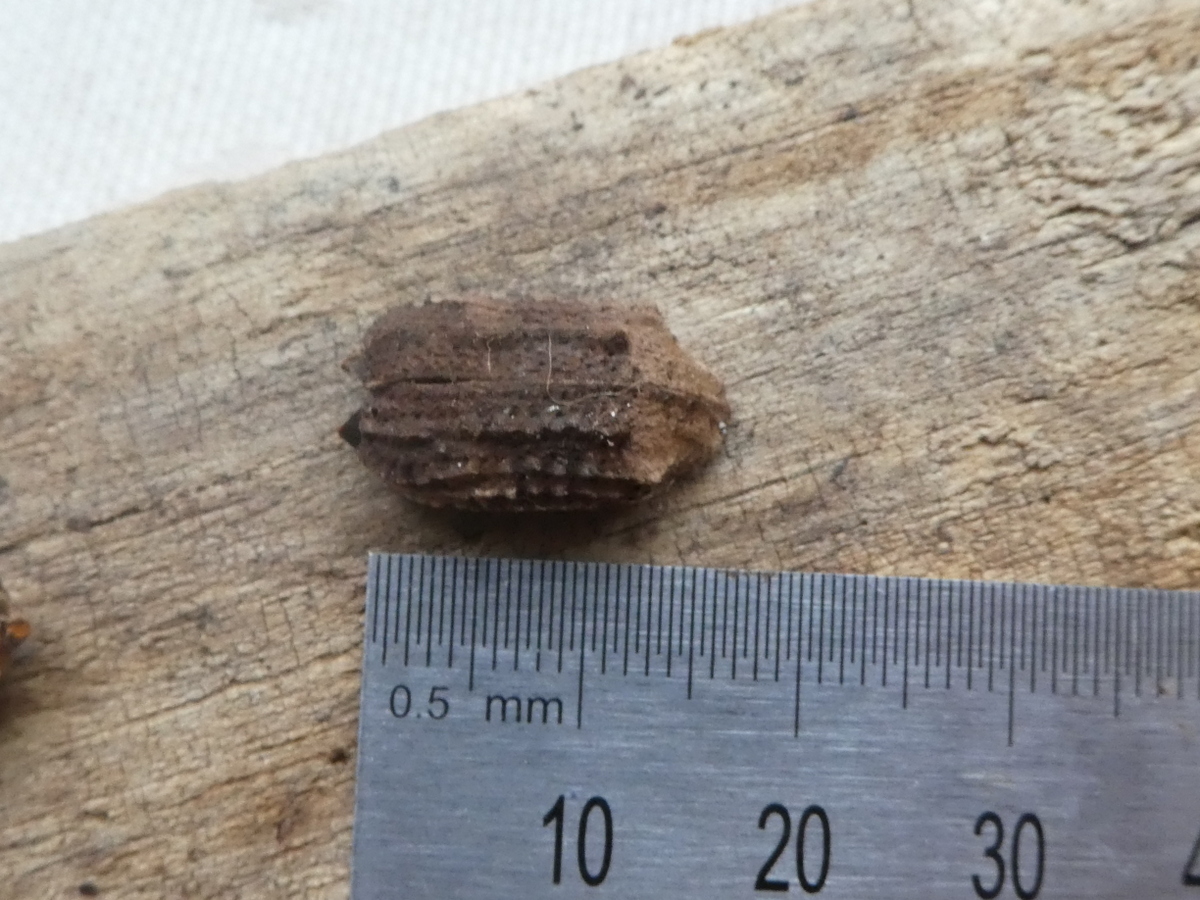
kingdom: Animalia
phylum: Arthropoda
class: Insecta
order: Coleoptera
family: Curculionidae
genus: Anagotus
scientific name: Anagotus stephenensis
